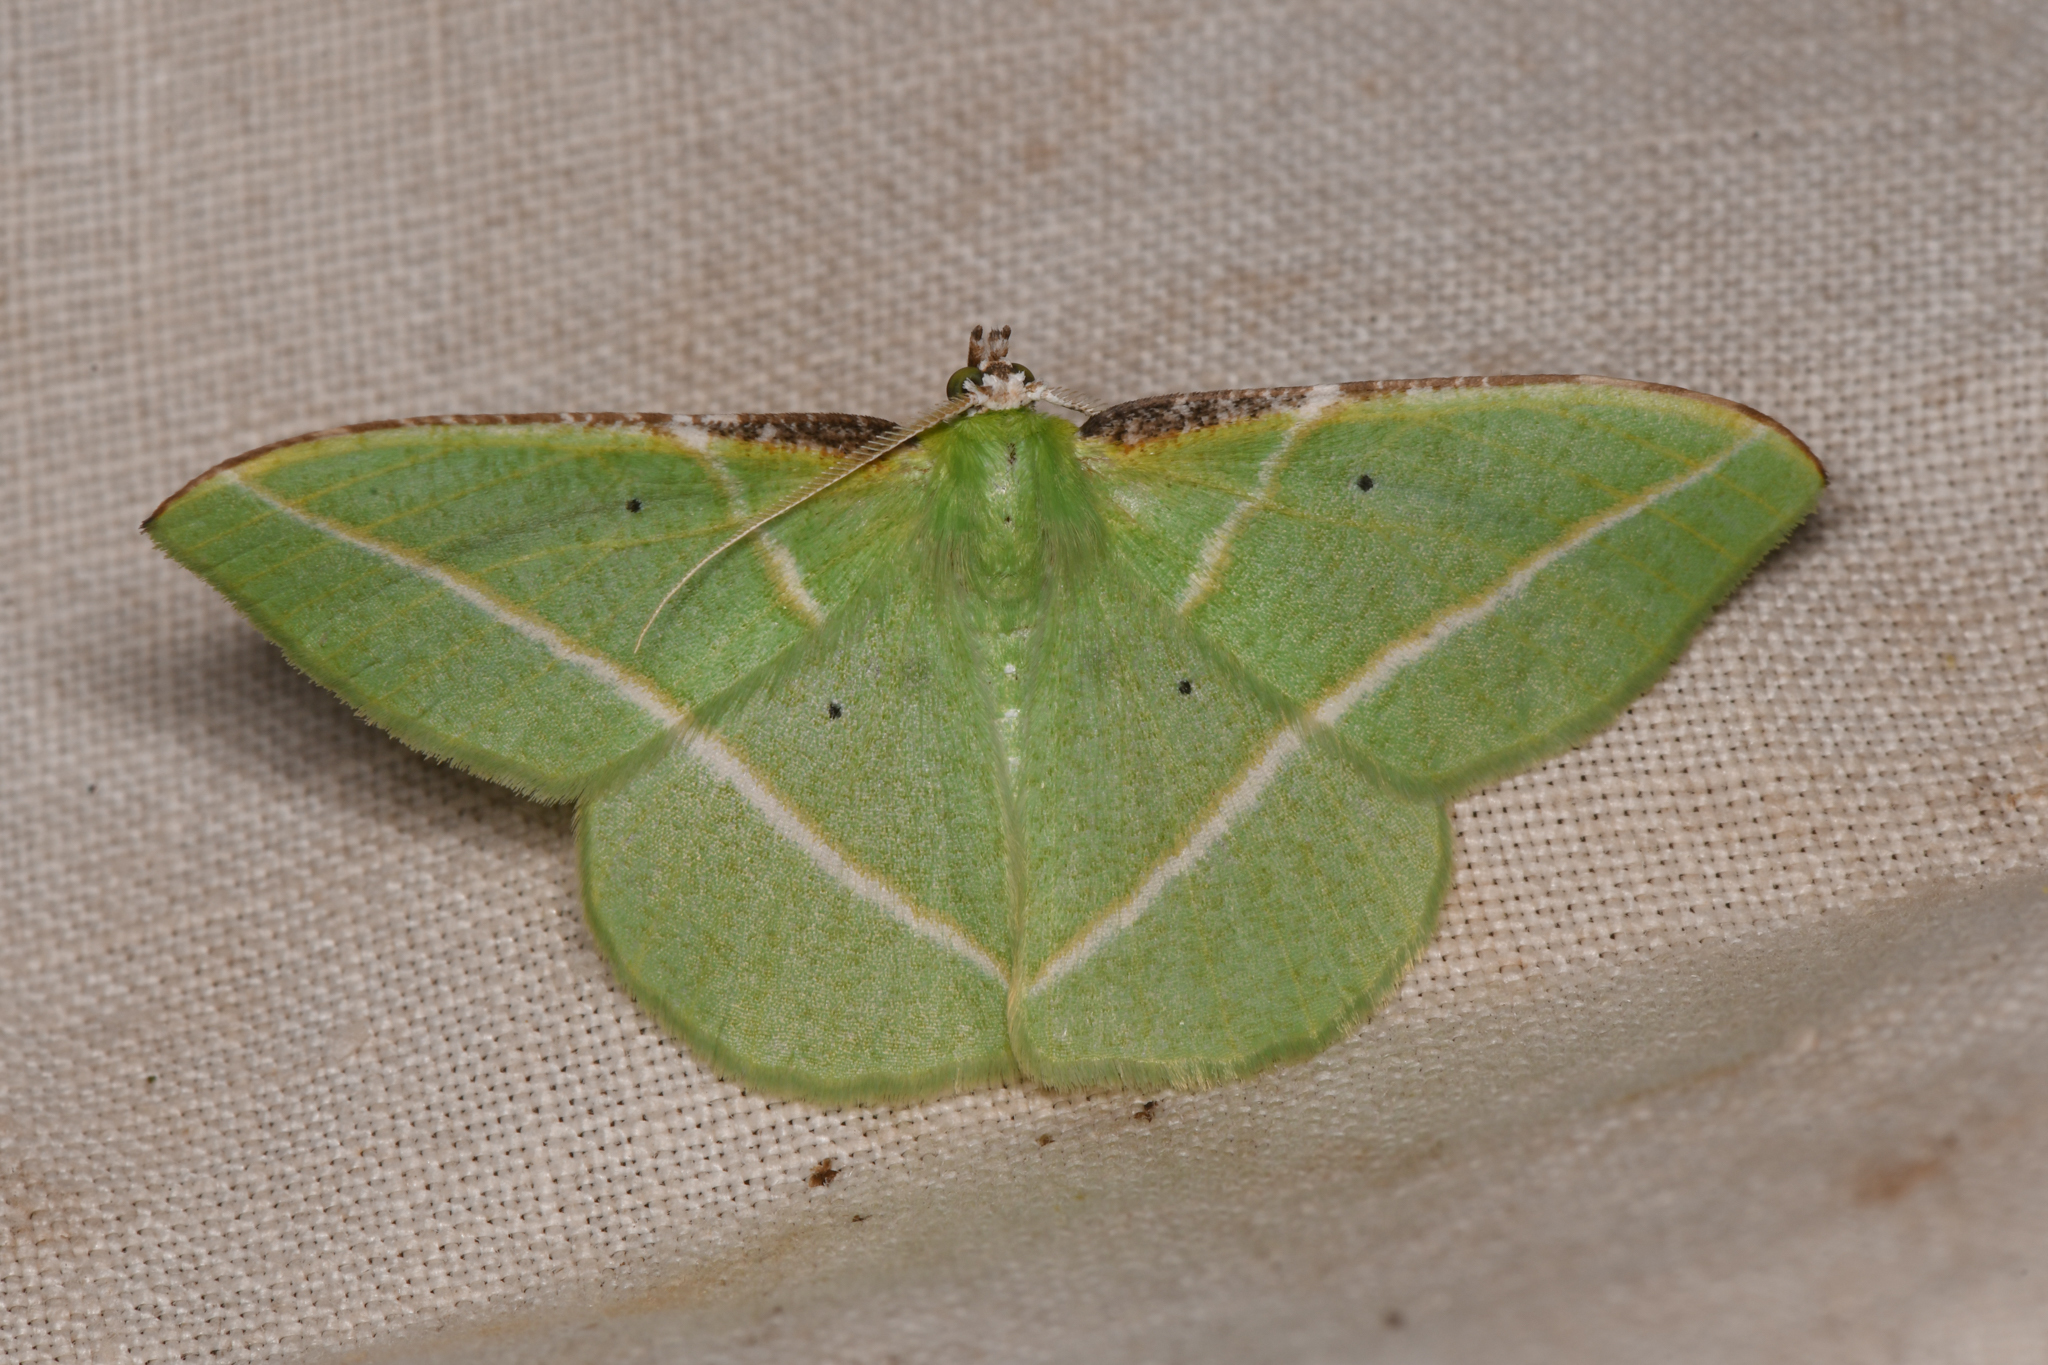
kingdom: Animalia
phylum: Arthropoda
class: Insecta
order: Lepidoptera
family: Geometridae
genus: Dichorda
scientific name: Dichorda illustraria
